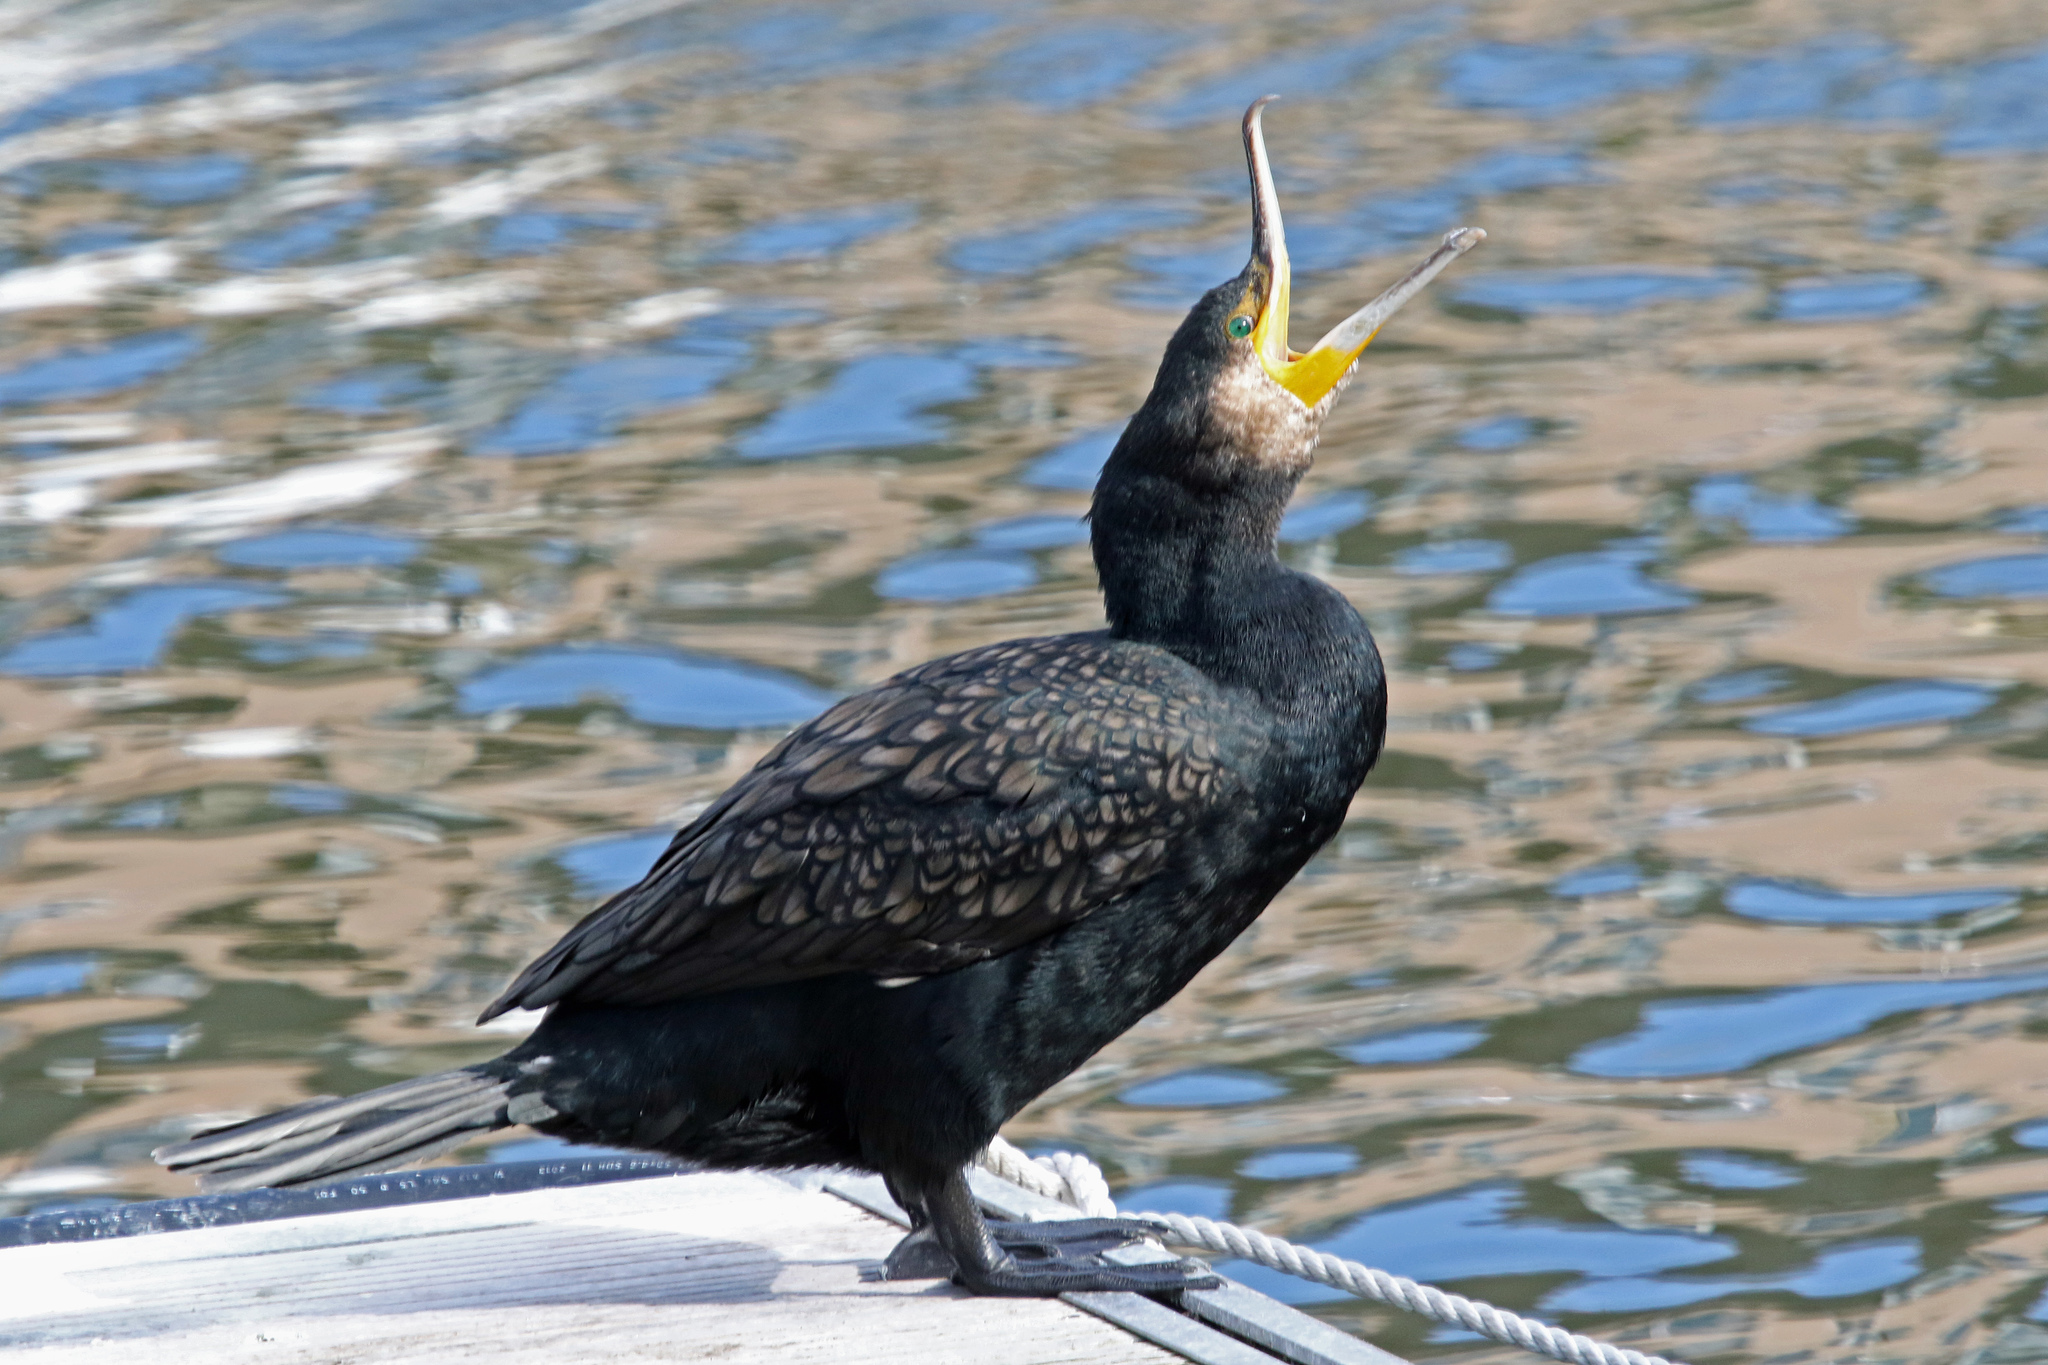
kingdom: Animalia
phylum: Chordata
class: Aves
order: Suliformes
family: Phalacrocoracidae
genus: Phalacrocorax
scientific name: Phalacrocorax carbo
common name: Great cormorant
